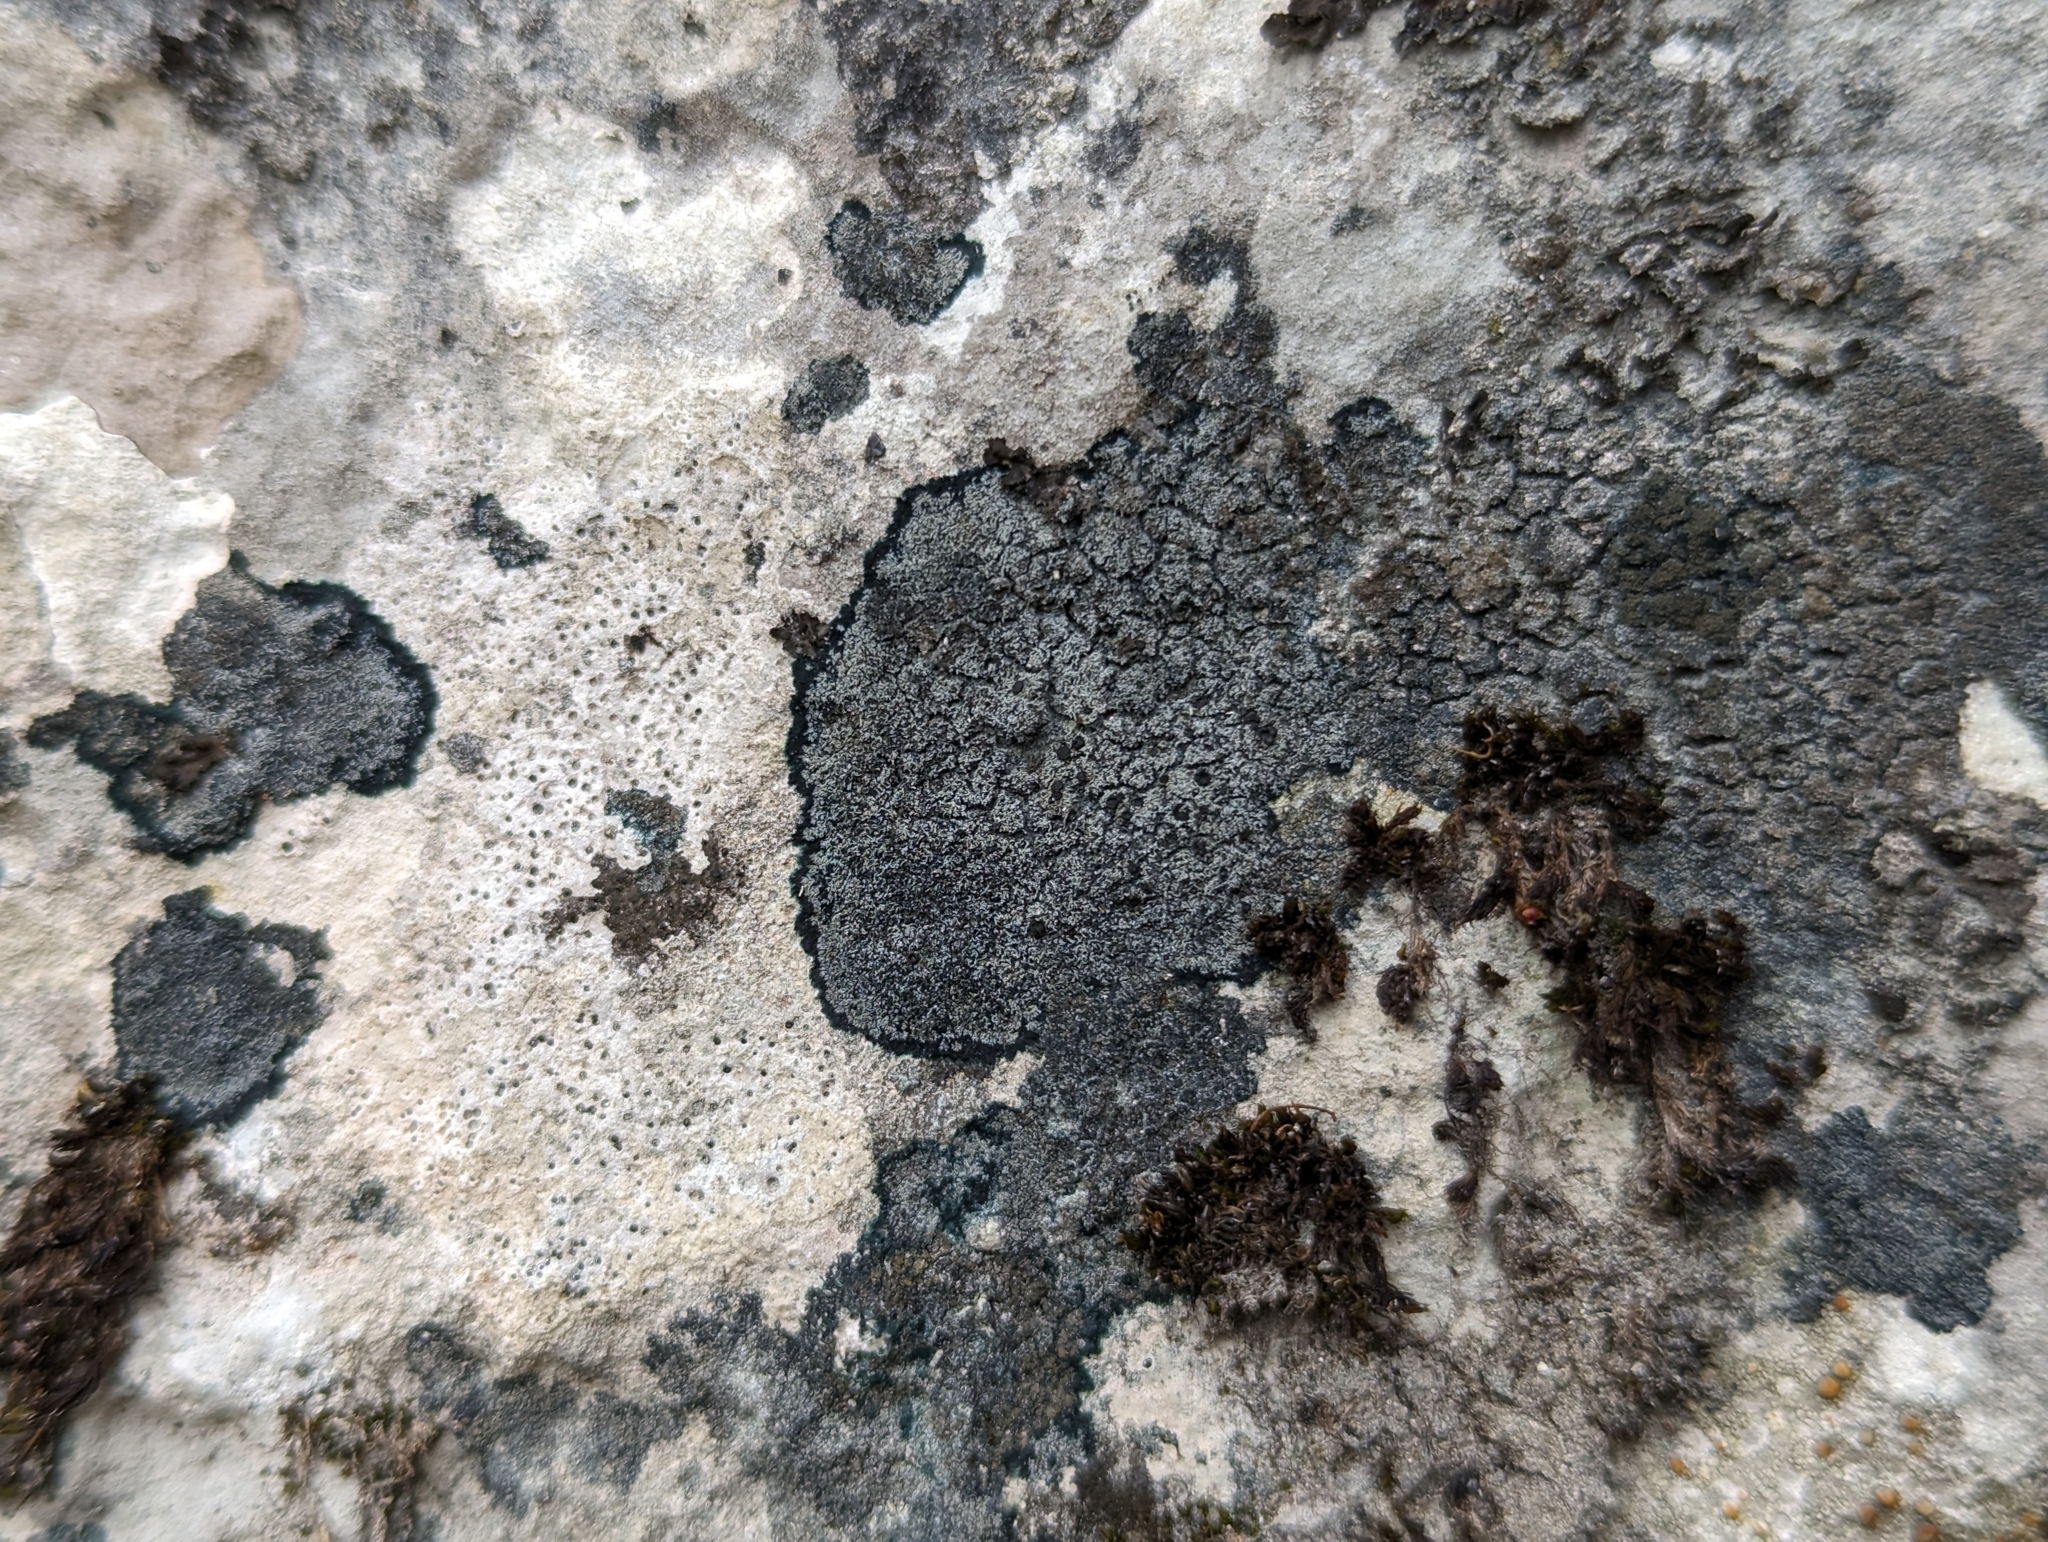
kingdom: Fungi
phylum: Ascomycota
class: Lecanoromycetes
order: Peltigerales
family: Placynthiaceae
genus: Placynthium
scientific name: Placynthium nigrum
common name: Blackthread lichen
